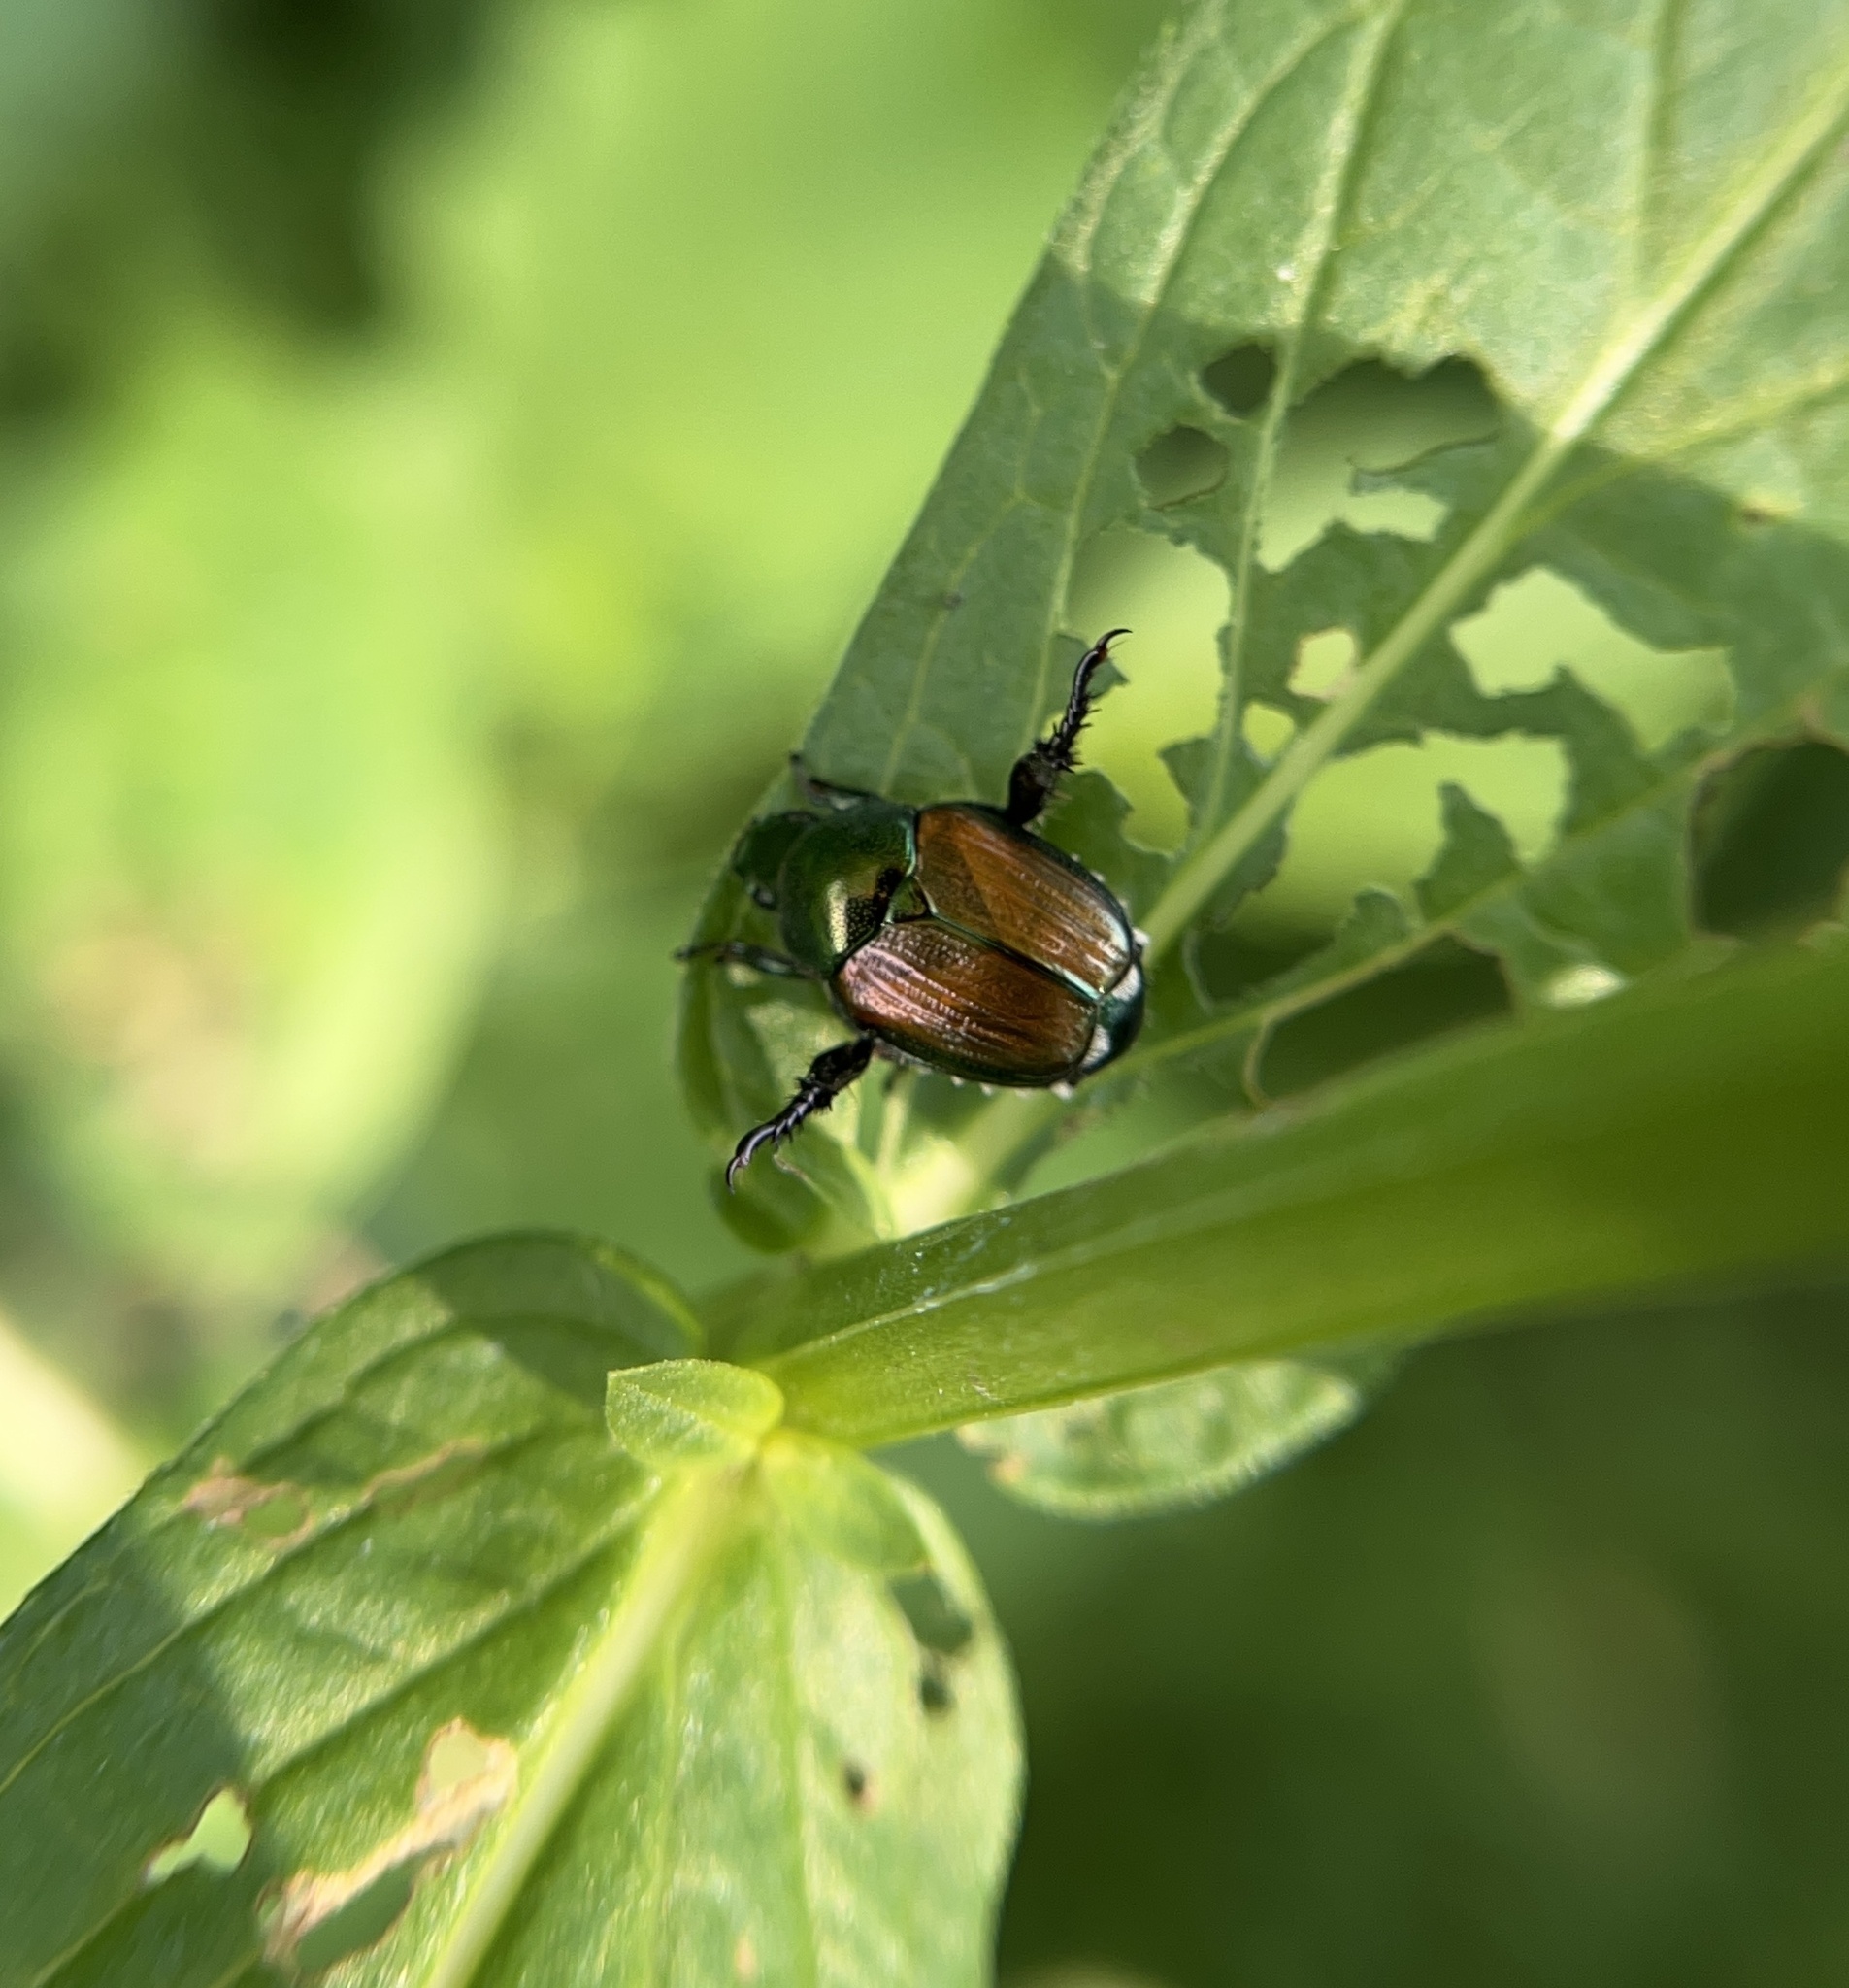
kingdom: Animalia
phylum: Arthropoda
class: Insecta
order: Coleoptera
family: Scarabaeidae
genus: Popillia
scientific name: Popillia japonica
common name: Japanese beetle
